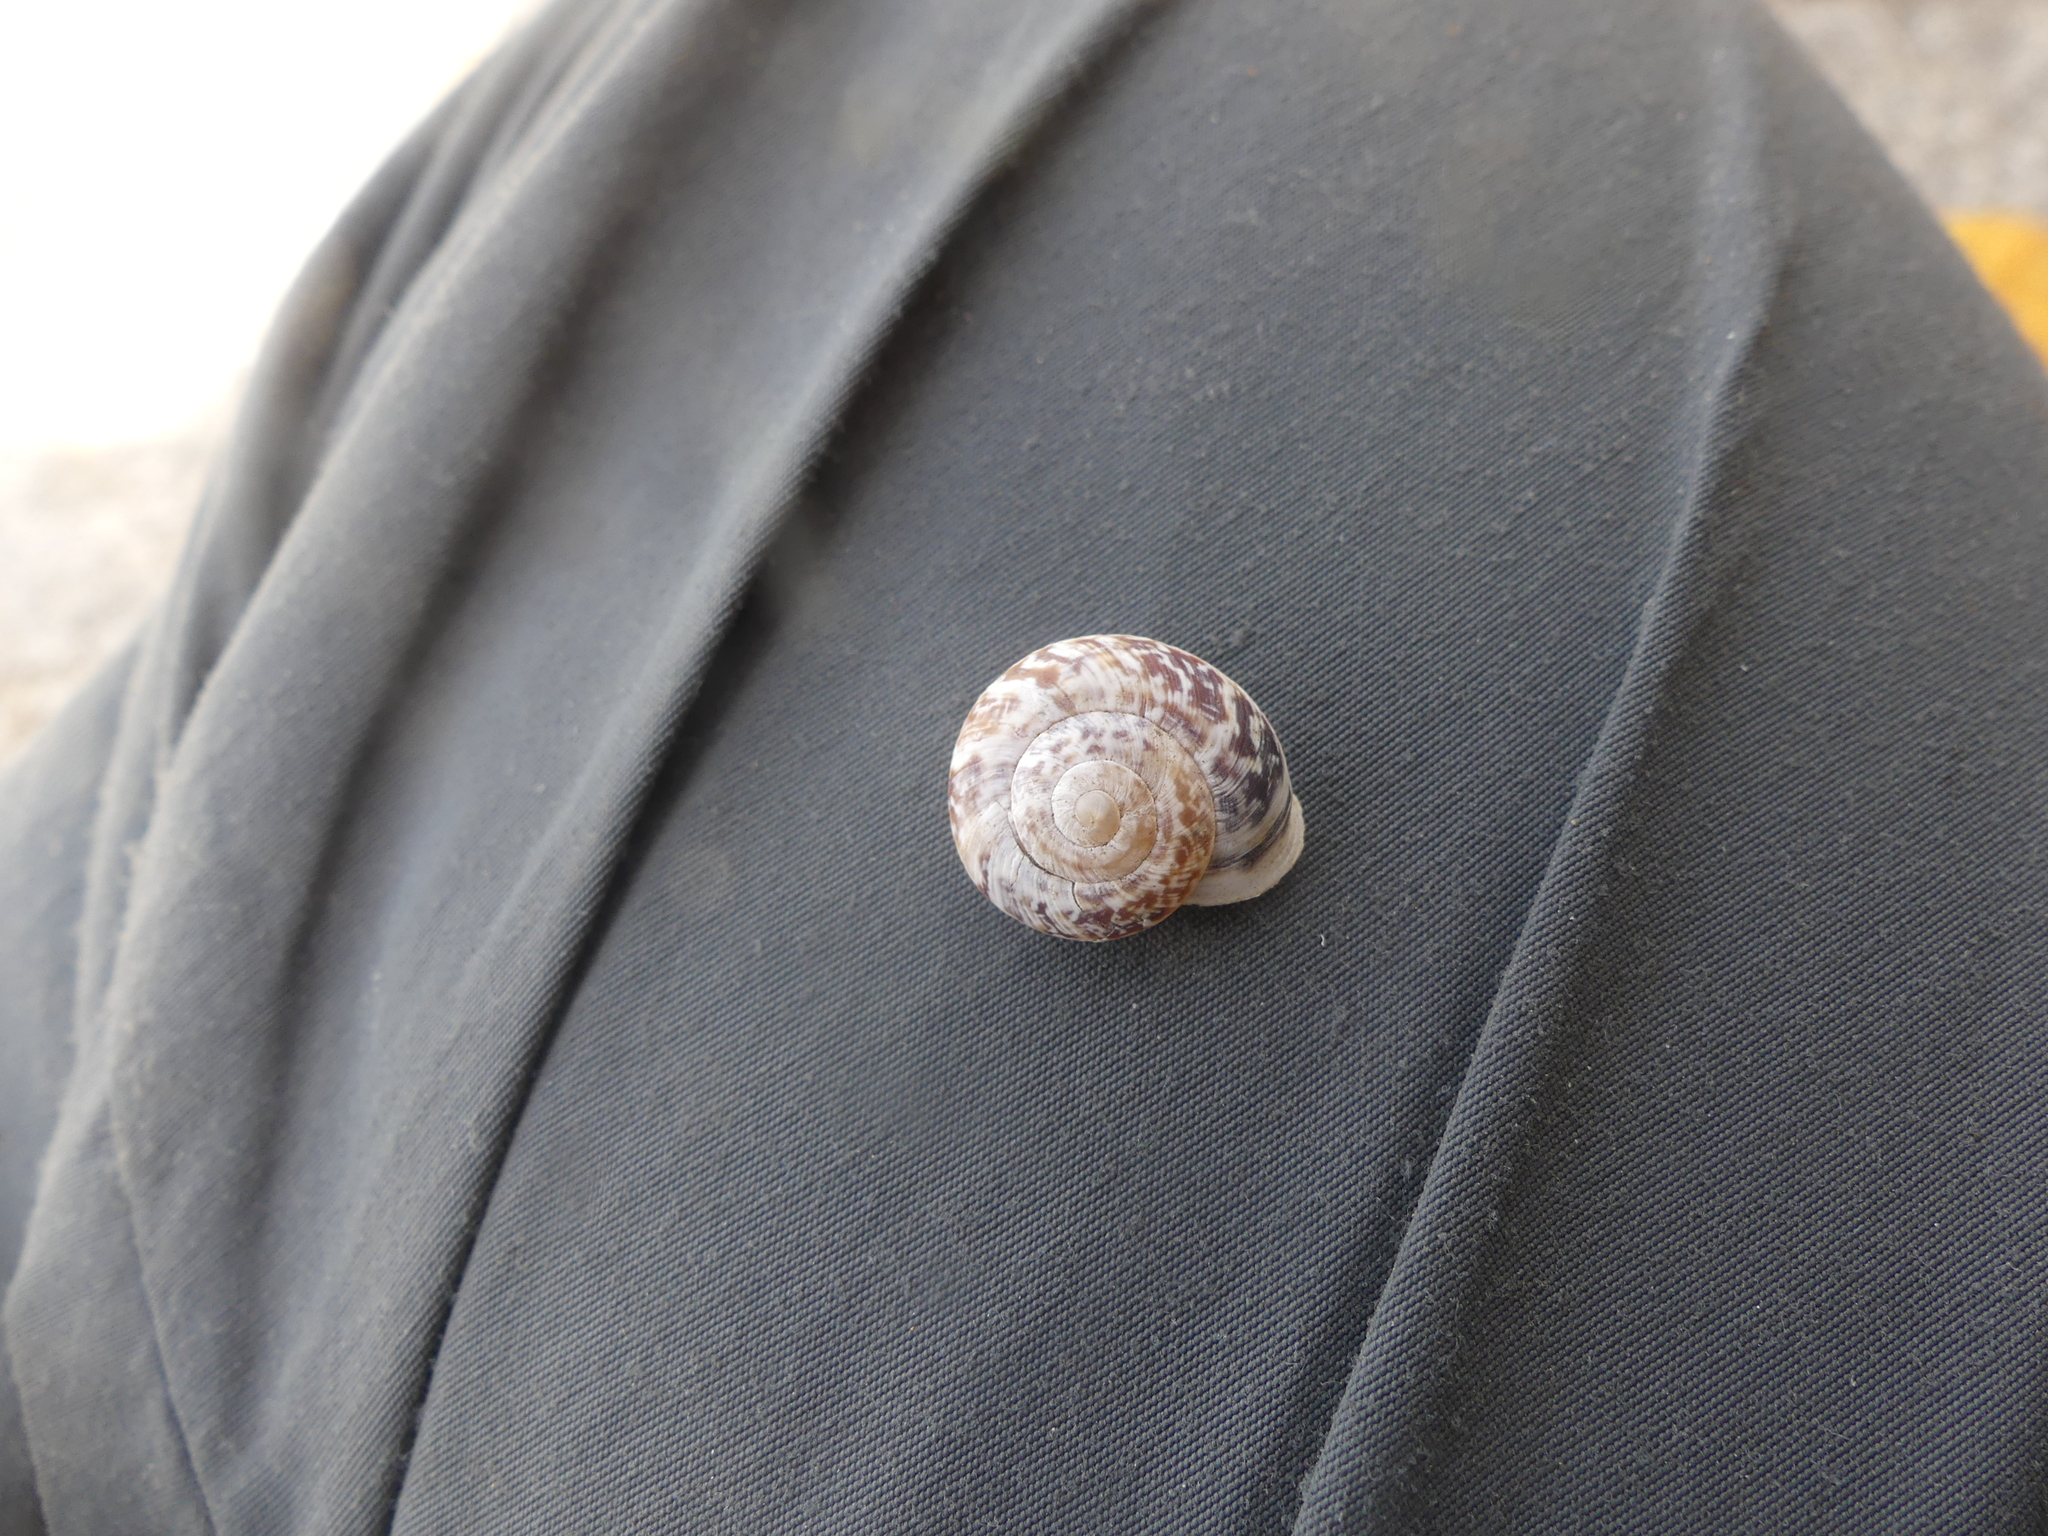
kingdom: Animalia
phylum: Mollusca
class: Gastropoda
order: Stylommatophora
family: Helicidae
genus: Marmorana
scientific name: Marmorana muralis
